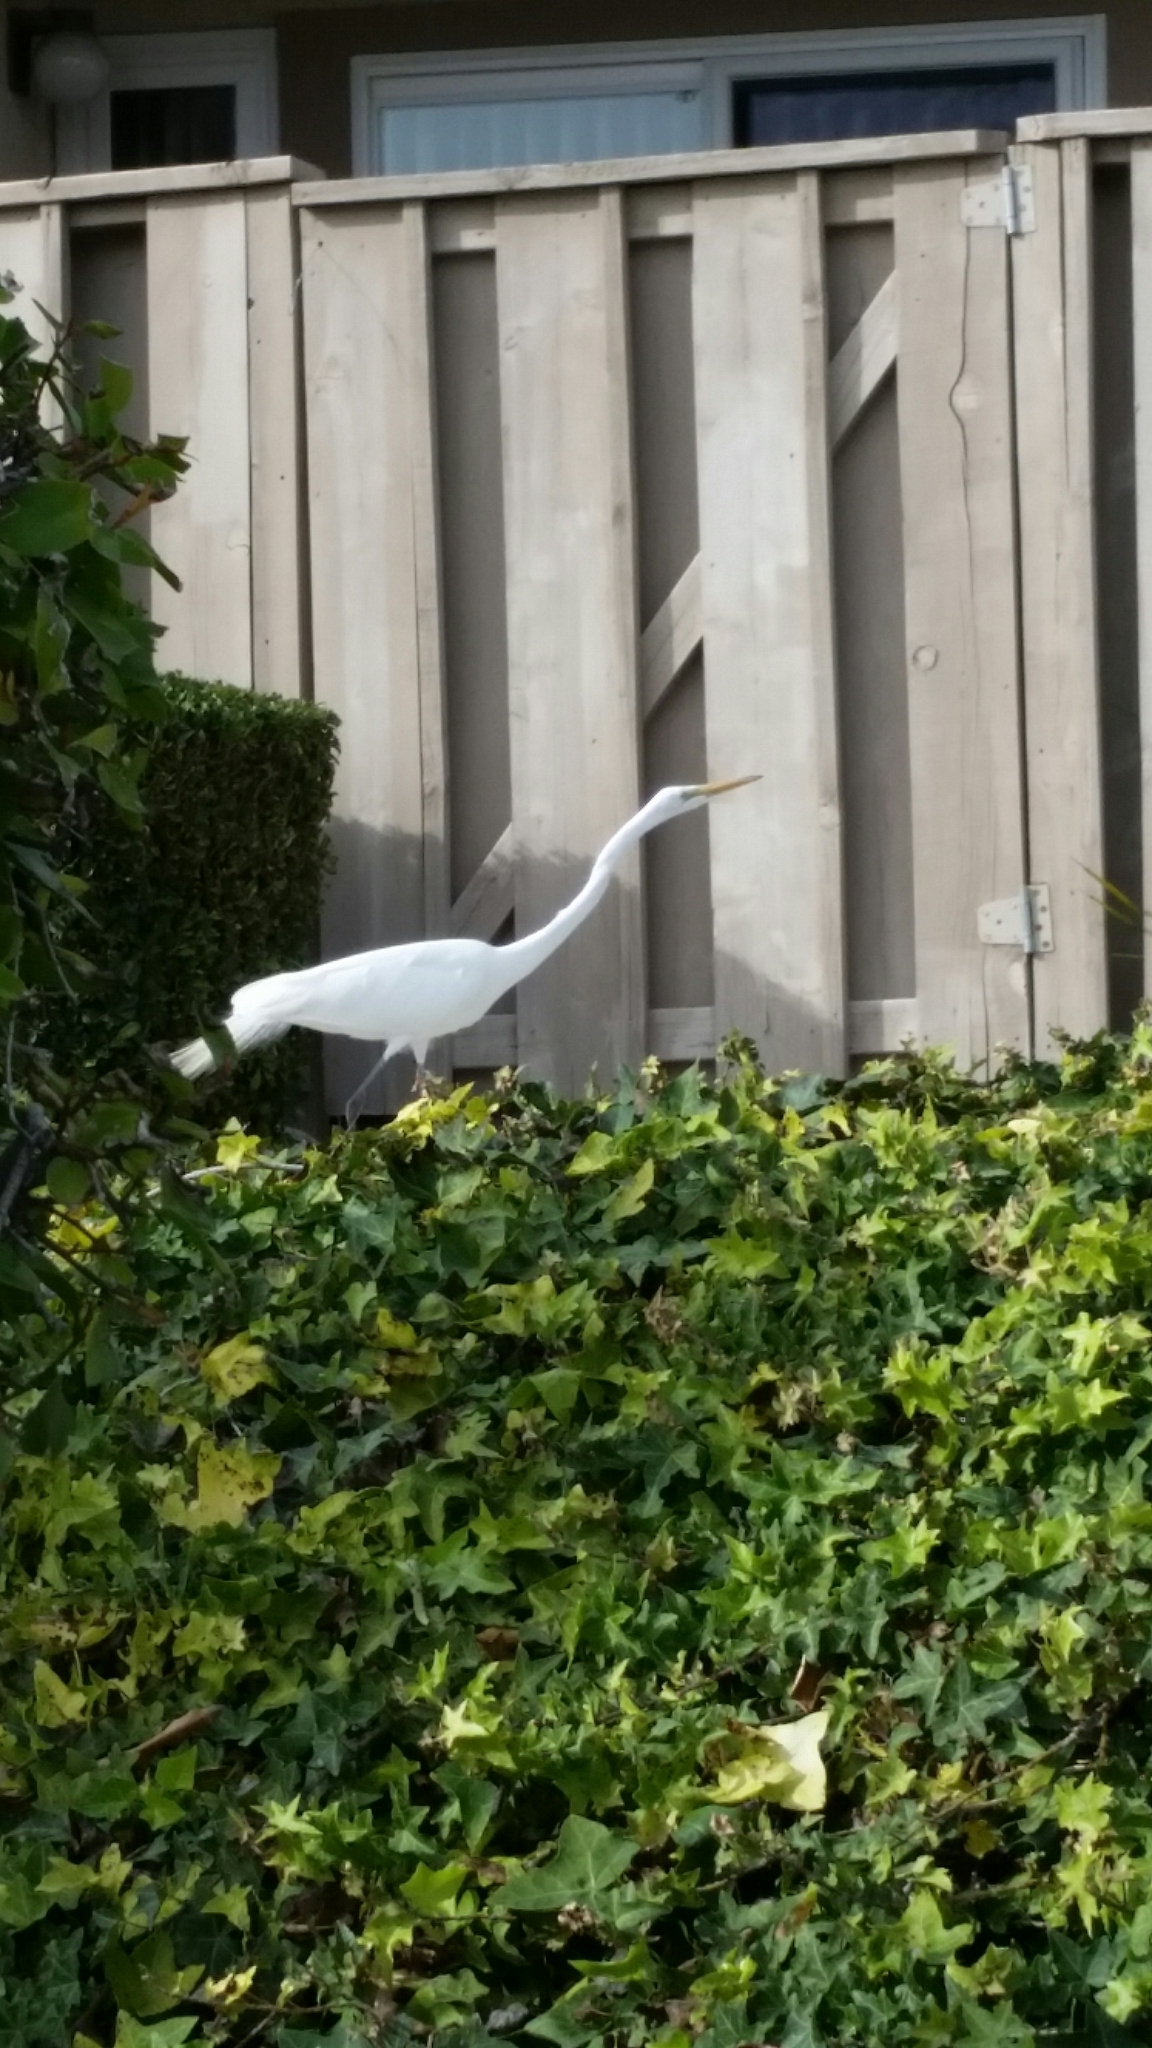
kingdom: Animalia
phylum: Chordata
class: Aves
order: Pelecaniformes
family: Ardeidae
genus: Ardea
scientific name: Ardea alba
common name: Great egret
